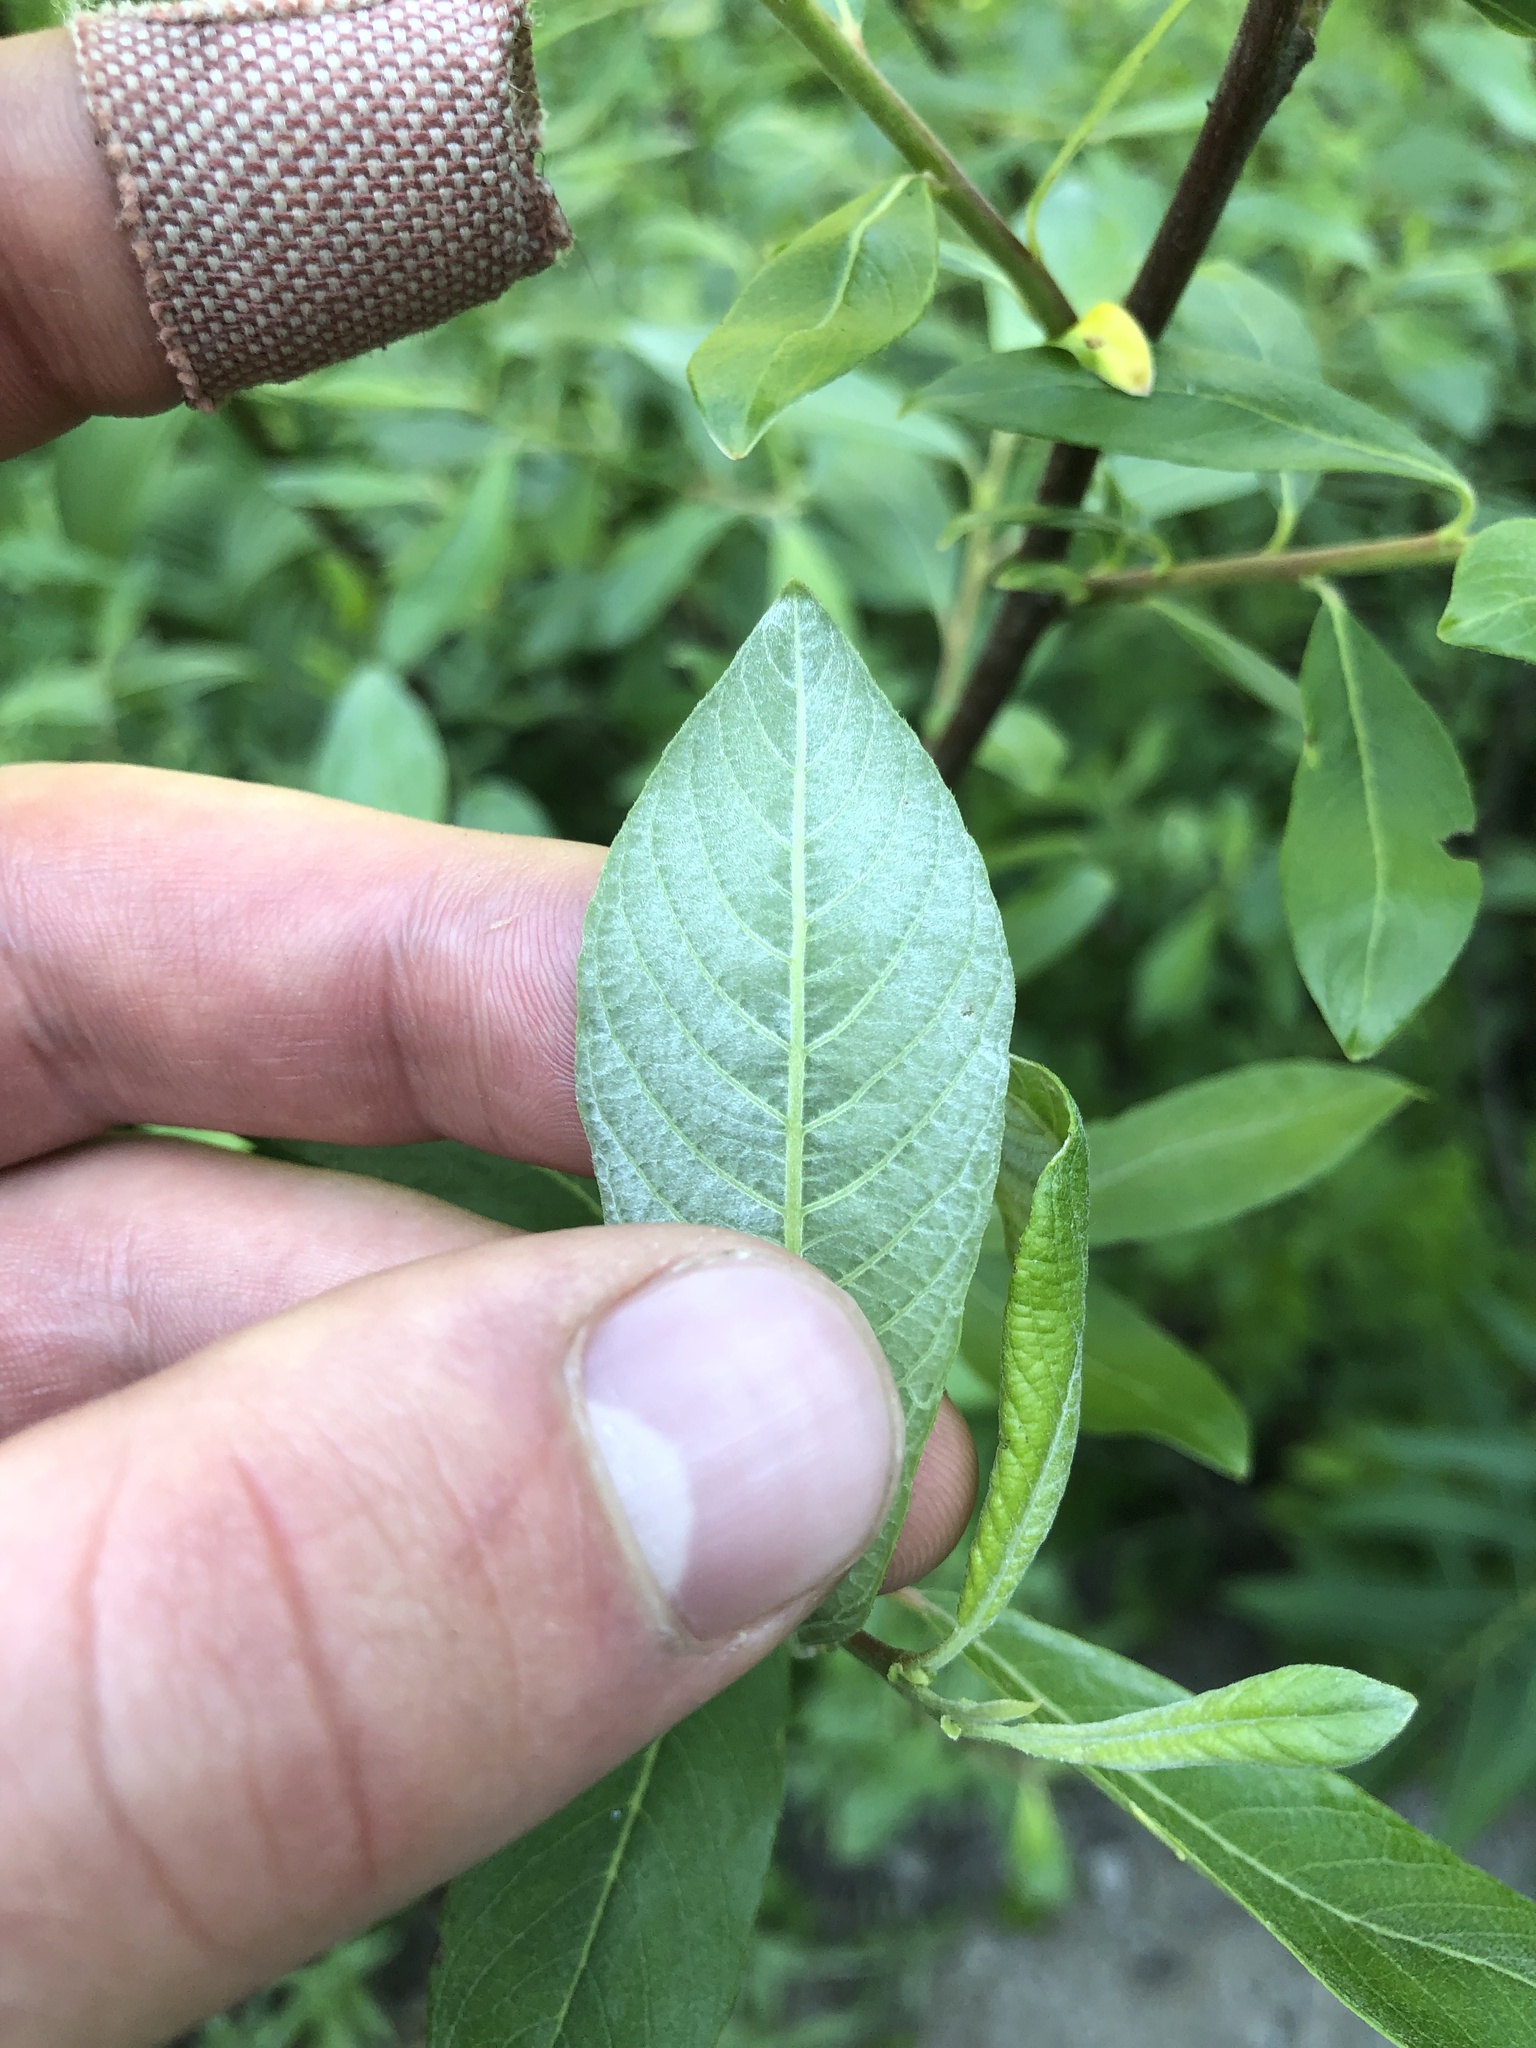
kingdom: Plantae
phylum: Tracheophyta
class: Magnoliopsida
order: Malpighiales
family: Salicaceae
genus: Salix
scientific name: Salix sitchensis
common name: Sitka willow
